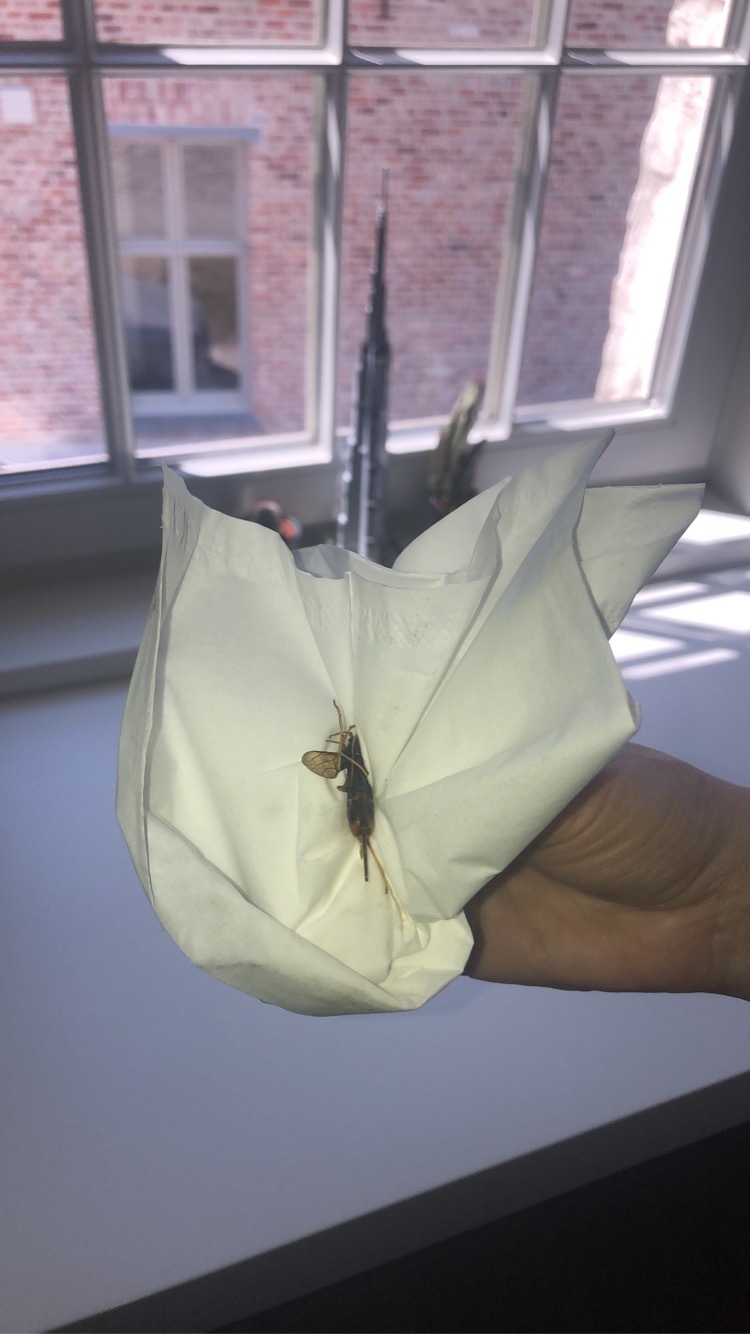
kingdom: Animalia
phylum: Arthropoda
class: Insecta
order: Hymenoptera
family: Siricidae
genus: Urocerus
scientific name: Urocerus
